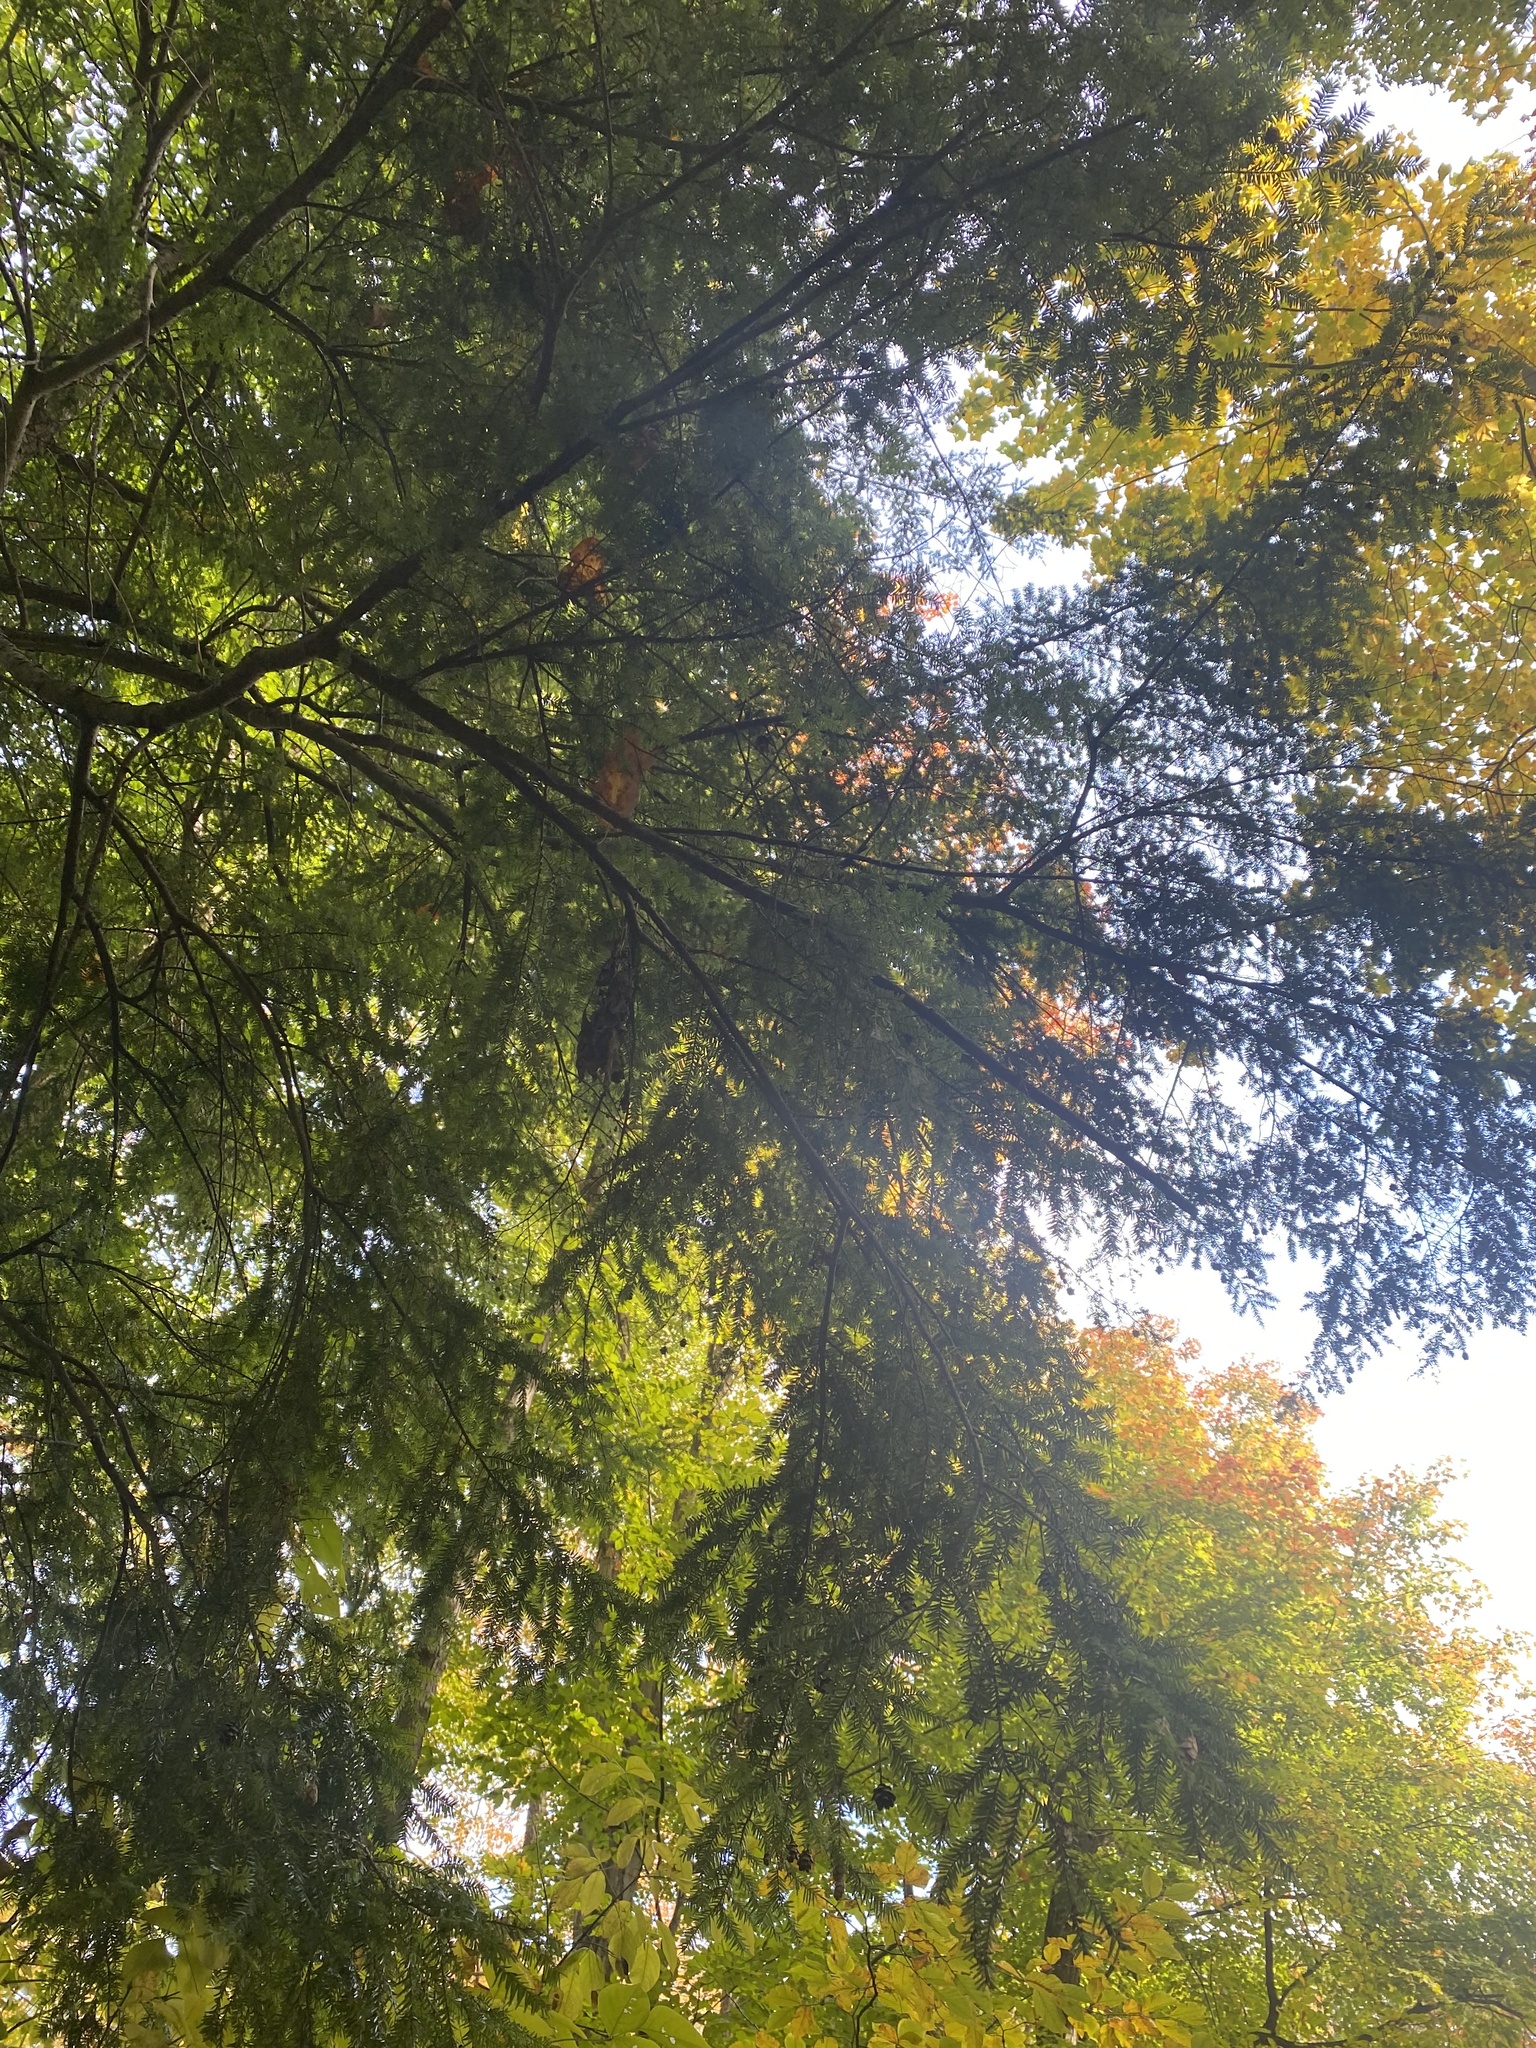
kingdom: Plantae
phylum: Tracheophyta
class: Pinopsida
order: Pinales
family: Pinaceae
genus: Tsuga
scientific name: Tsuga canadensis
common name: Eastern hemlock
